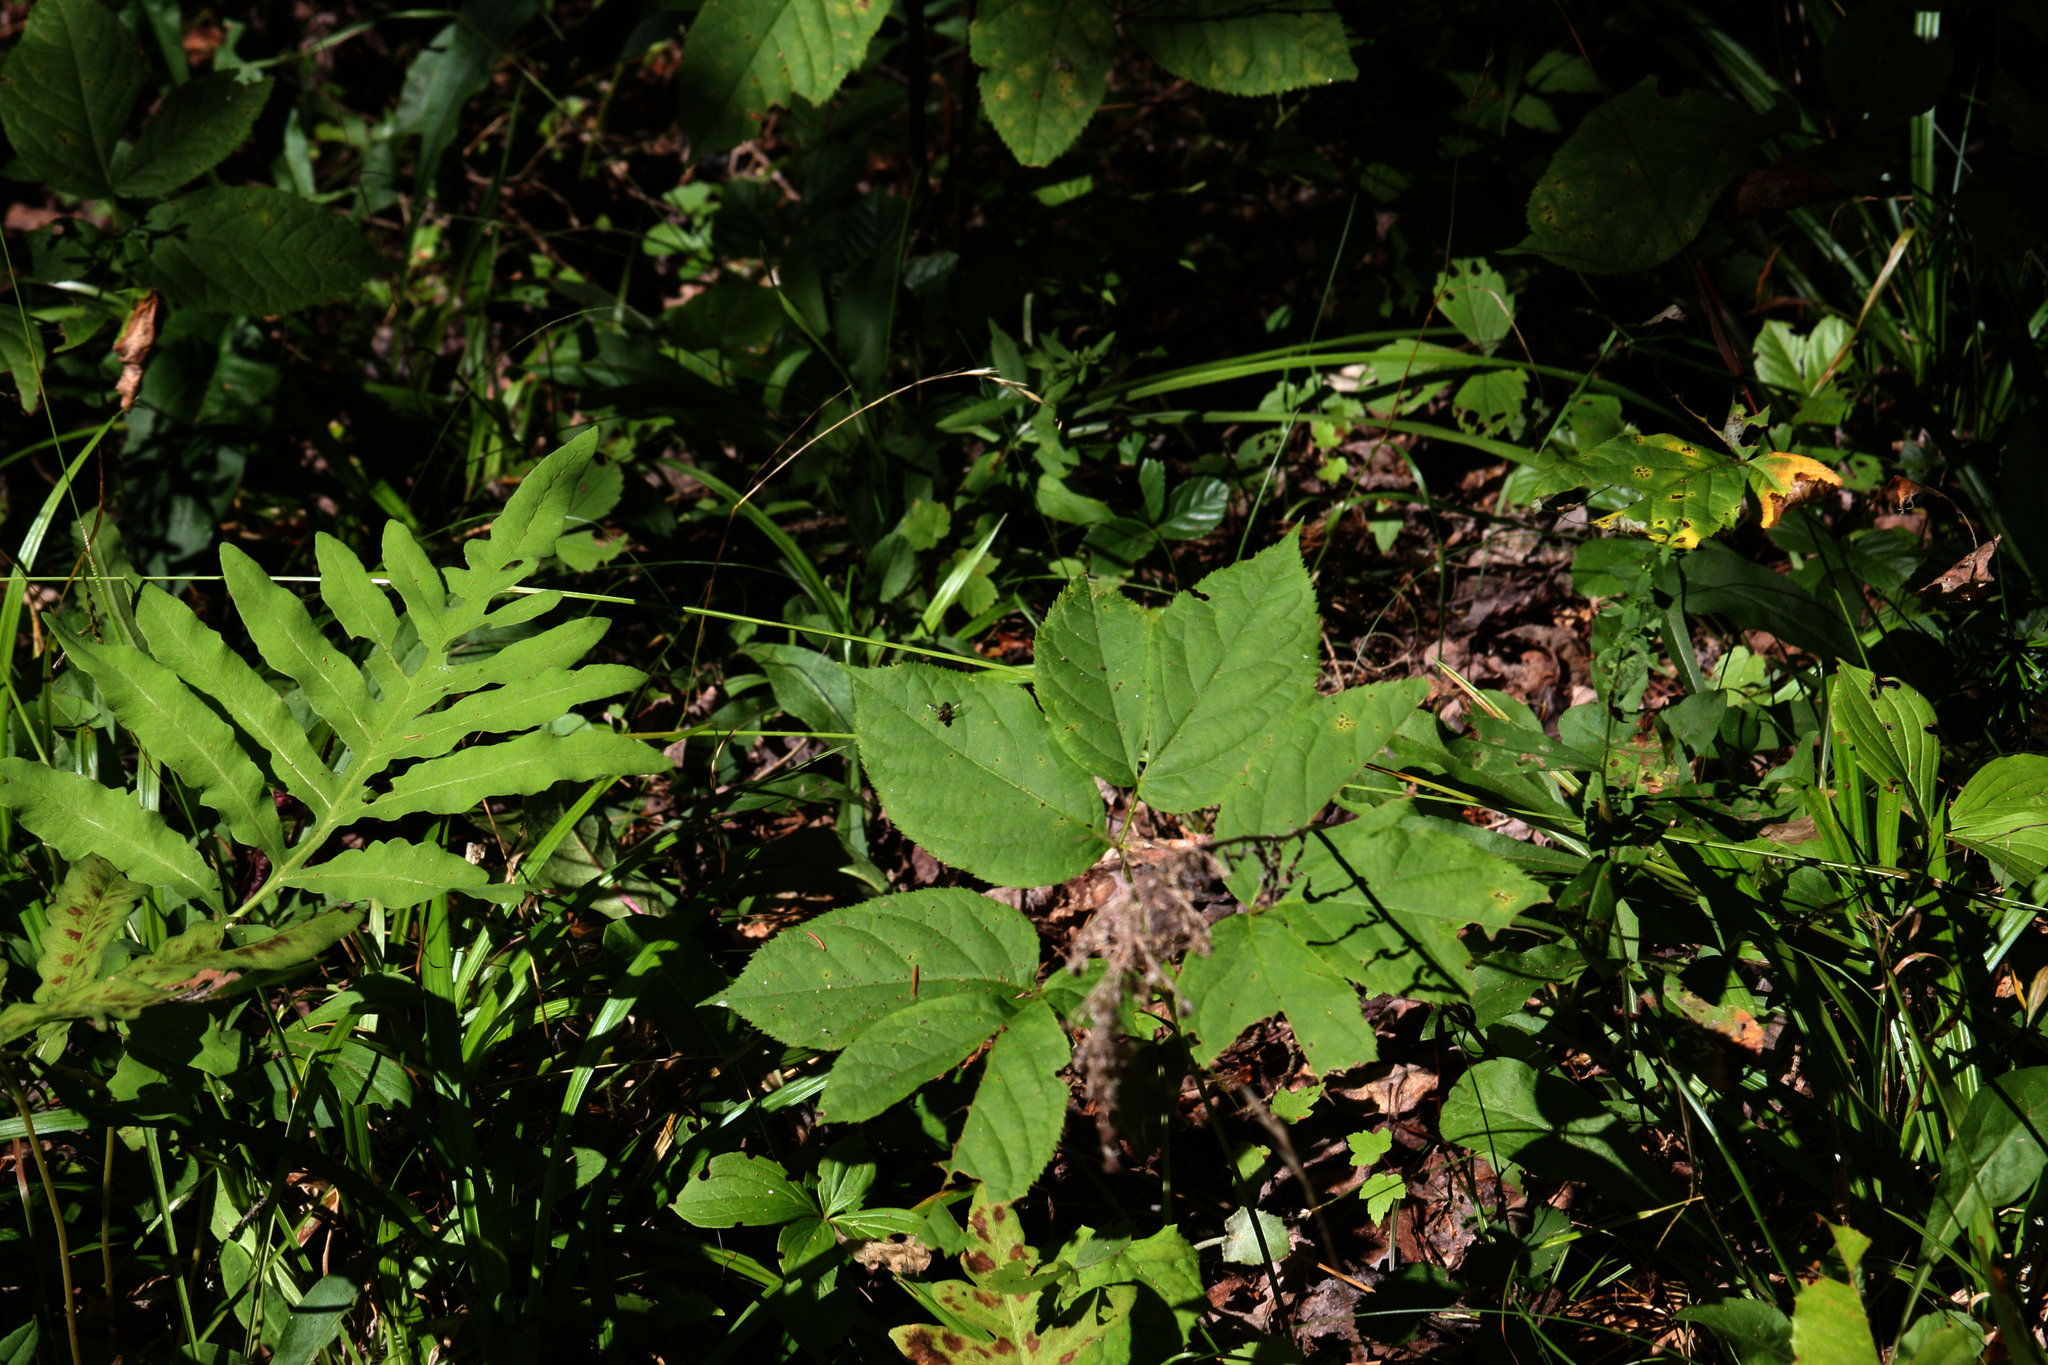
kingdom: Plantae
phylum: Tracheophyta
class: Magnoliopsida
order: Apiales
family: Araliaceae
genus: Aralia
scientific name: Aralia nudicaulis
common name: Wild sarsaparilla
